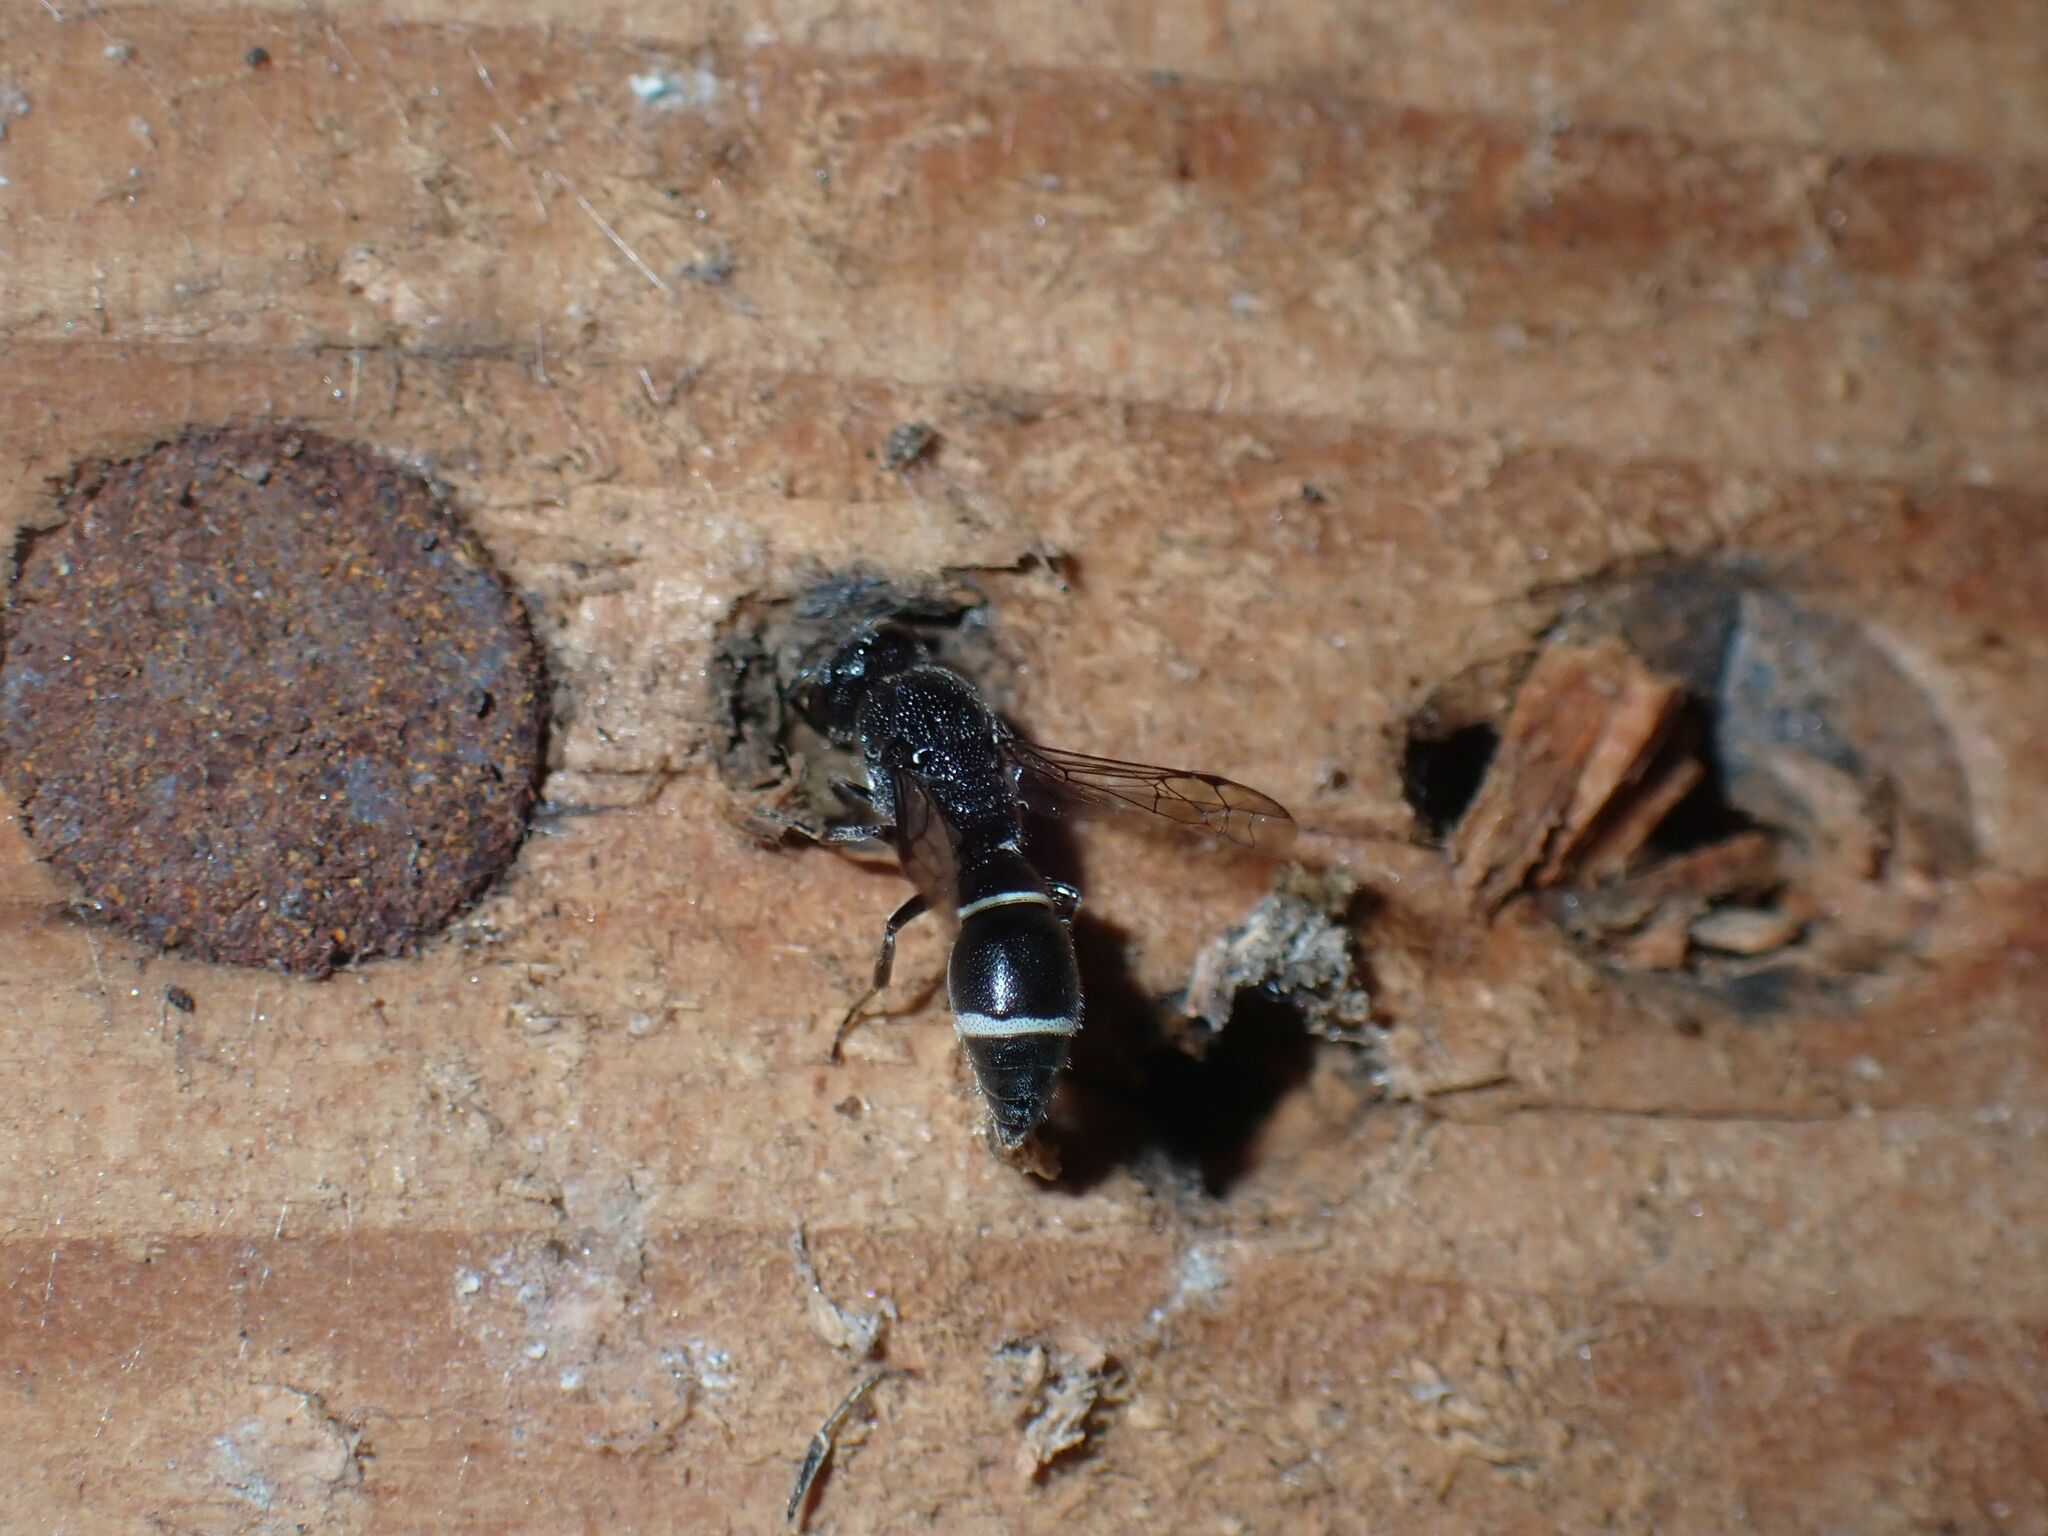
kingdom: Animalia
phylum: Arthropoda
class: Insecta
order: Hymenoptera
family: Eumenidae
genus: Subancistrocerus
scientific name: Subancistrocerus sichelii
